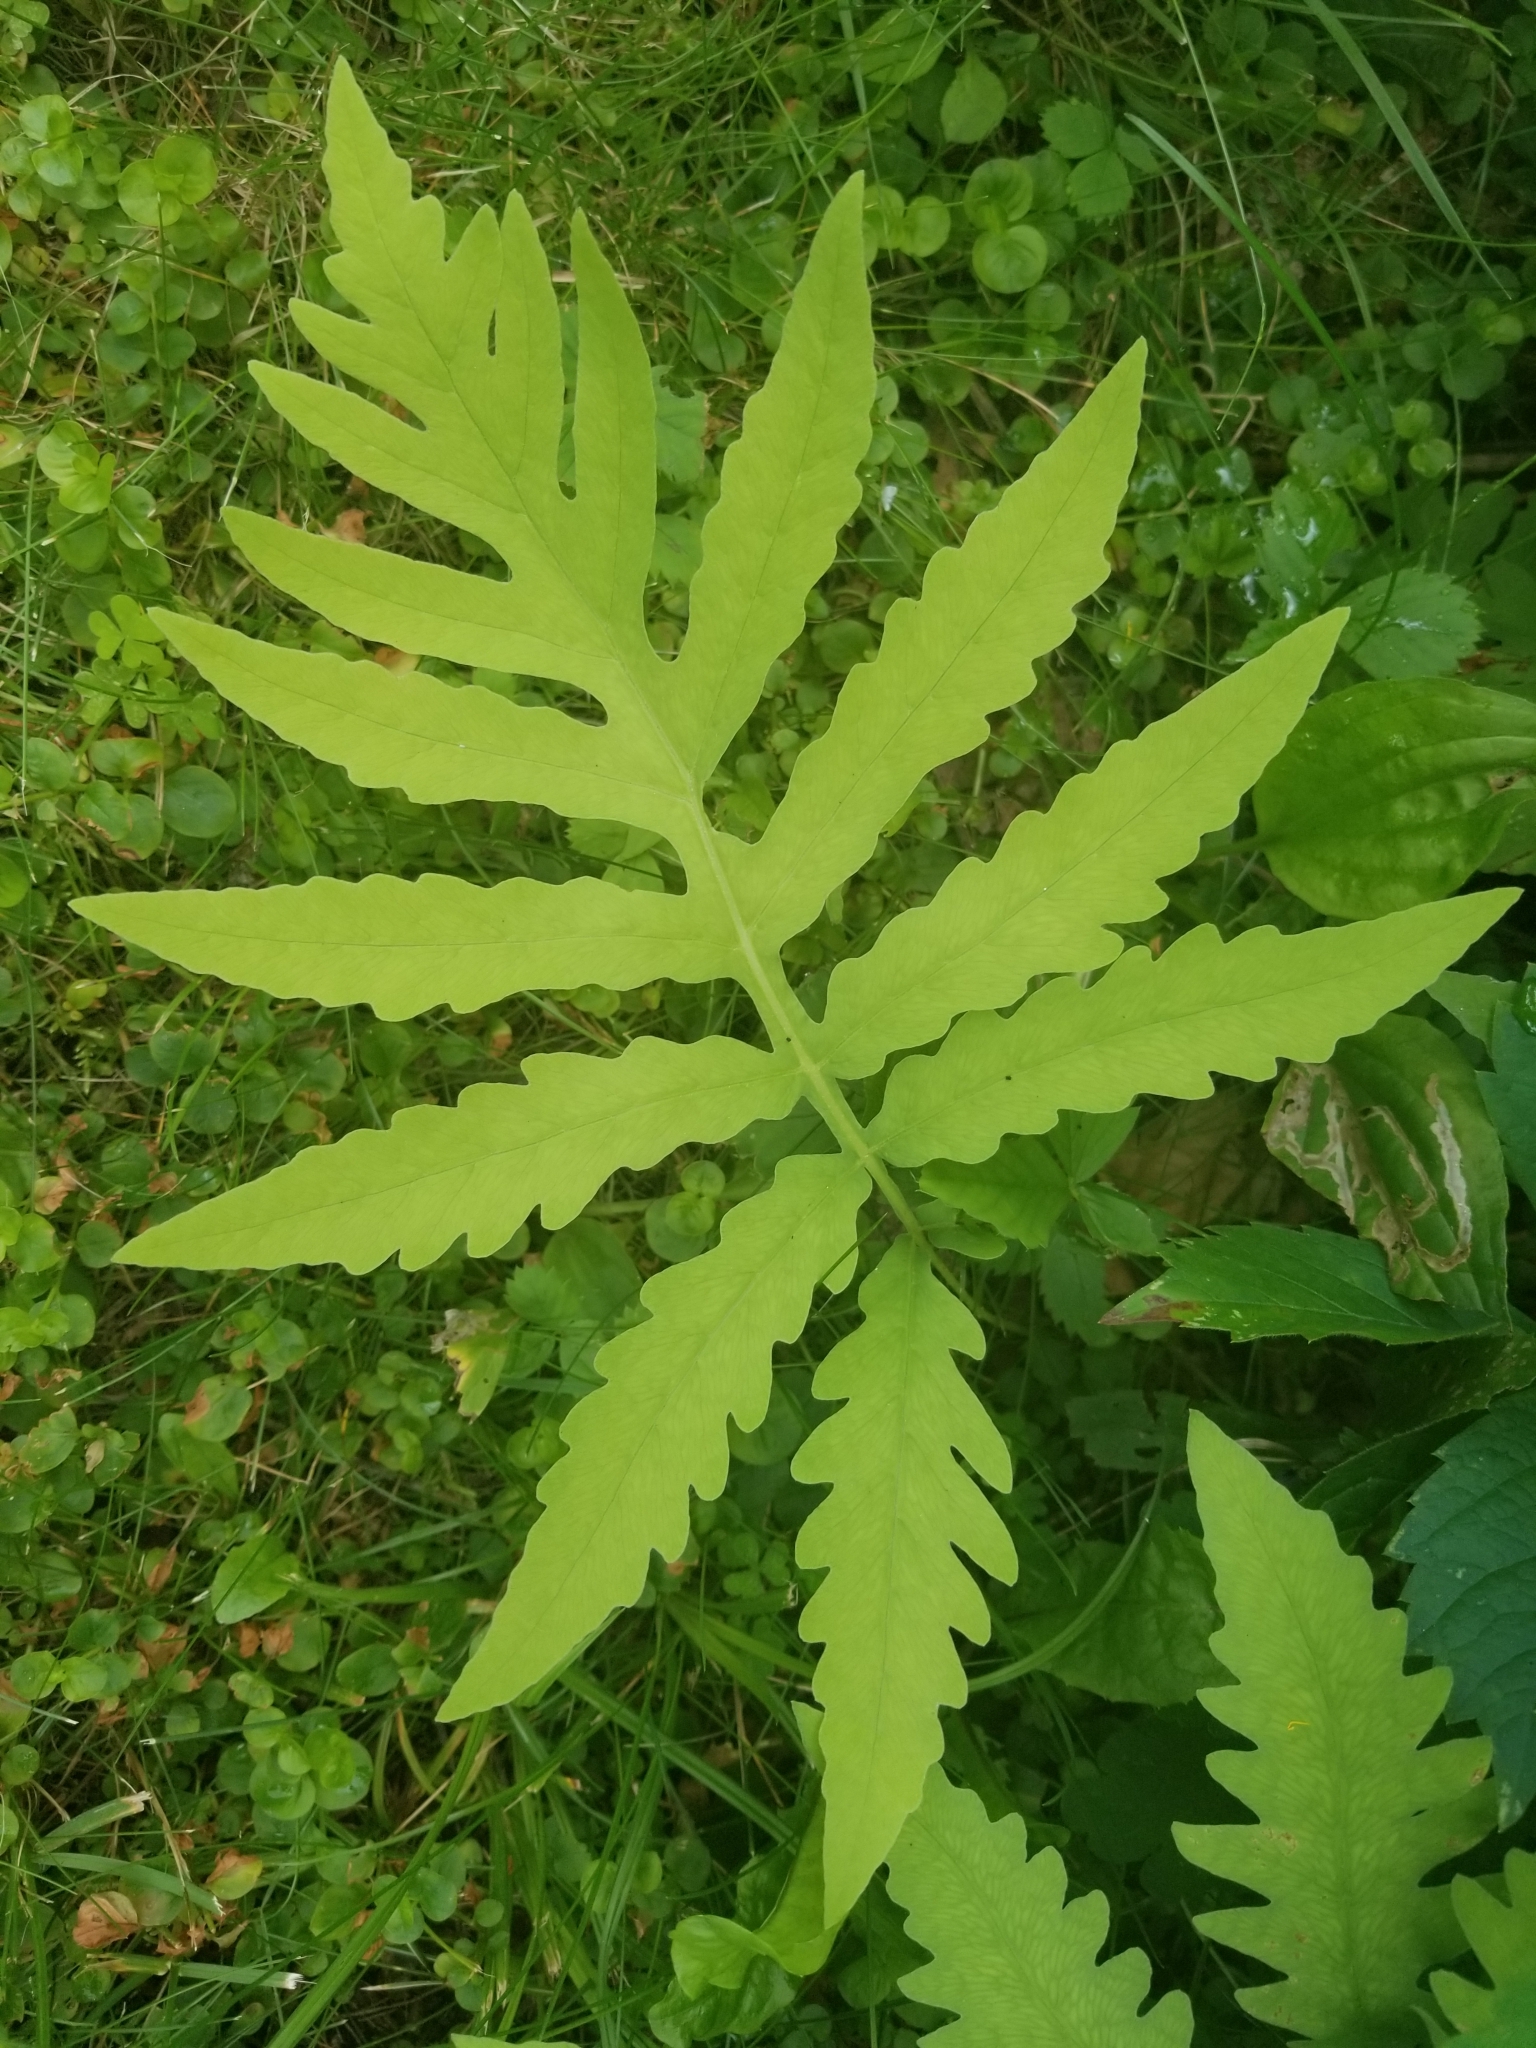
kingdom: Plantae
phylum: Tracheophyta
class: Polypodiopsida
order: Polypodiales
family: Onocleaceae
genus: Onoclea
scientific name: Onoclea sensibilis
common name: Sensitive fern
